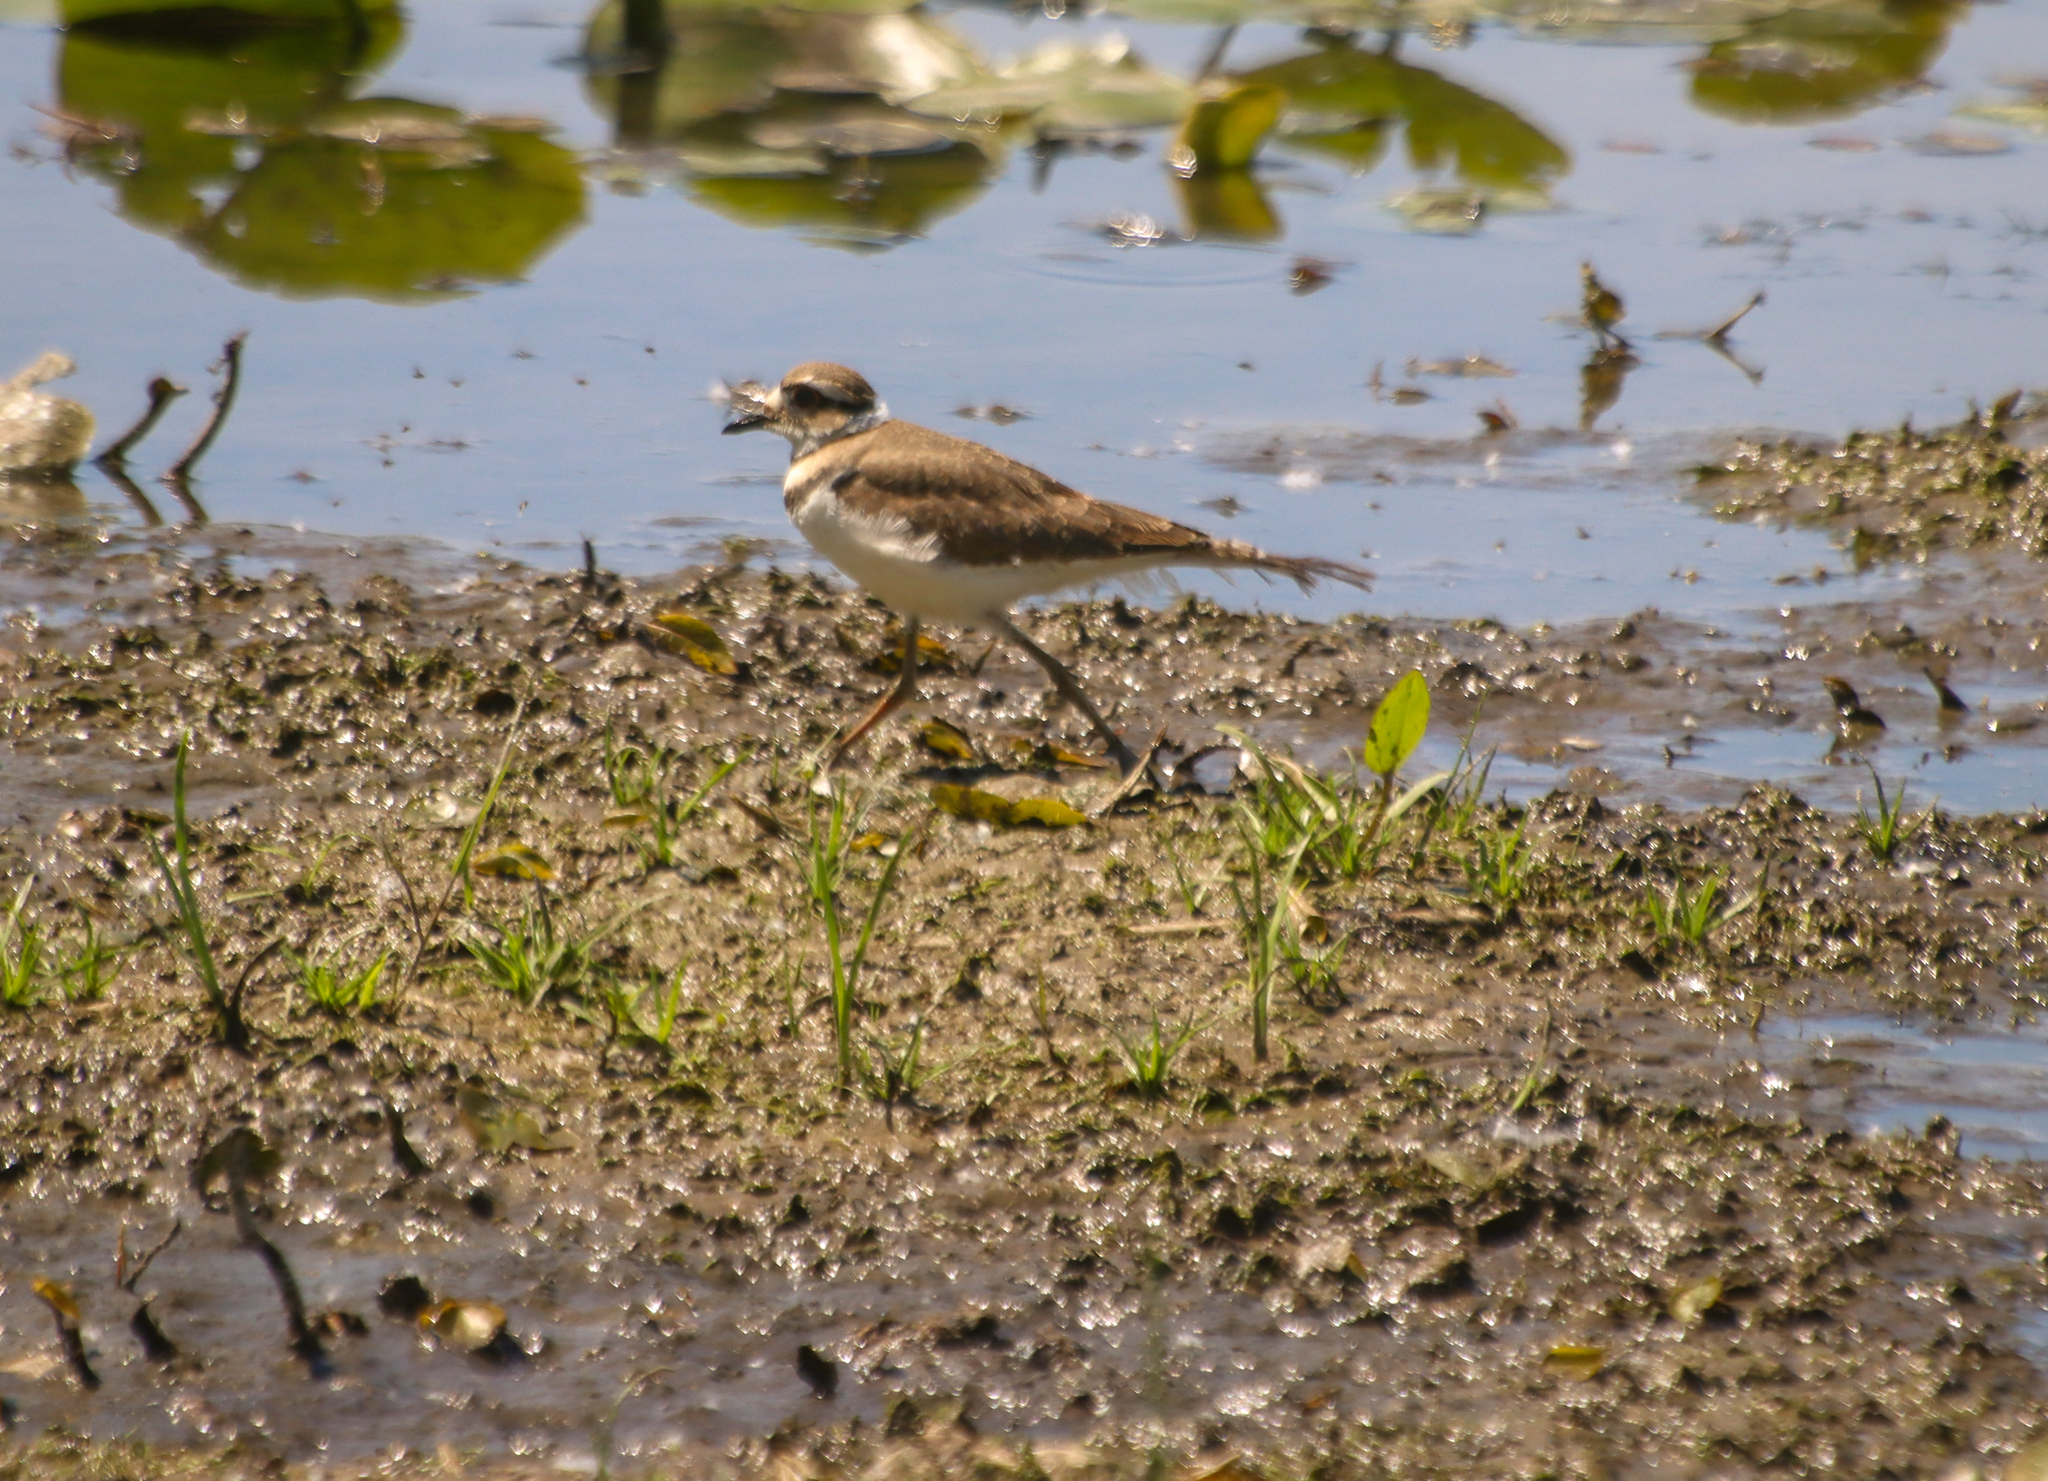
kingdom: Animalia
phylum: Chordata
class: Aves
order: Charadriiformes
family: Charadriidae
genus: Charadrius
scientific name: Charadrius vociferus
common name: Killdeer
